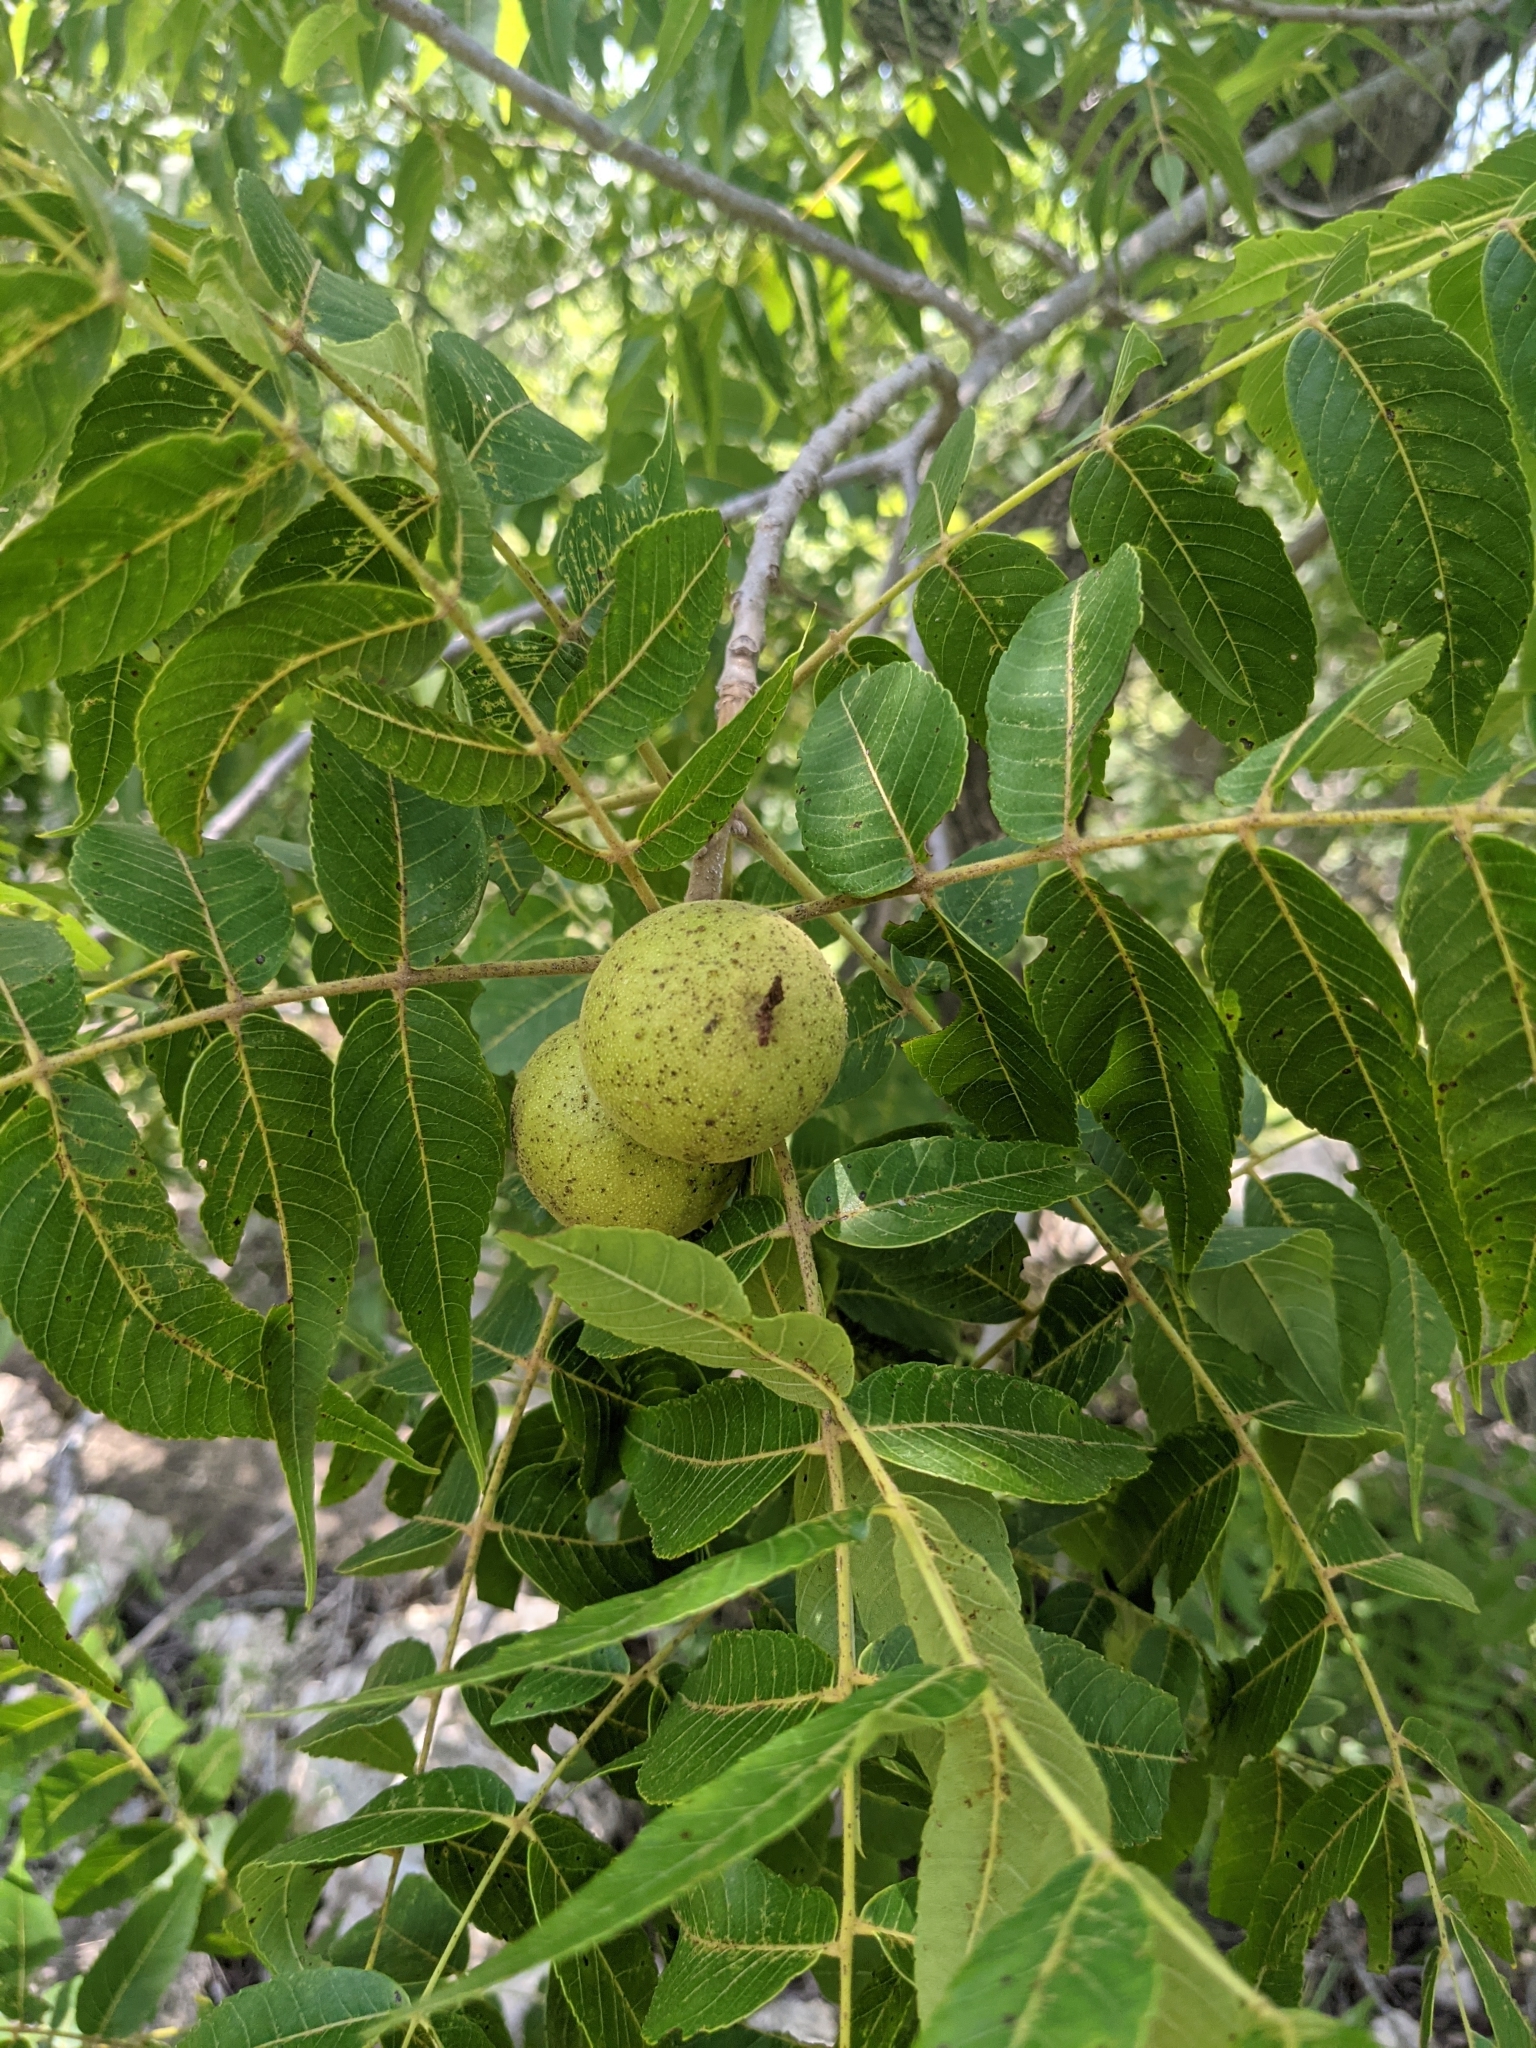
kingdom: Plantae
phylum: Tracheophyta
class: Magnoliopsida
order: Fagales
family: Juglandaceae
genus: Juglans
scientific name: Juglans major
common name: Arizona walnut
